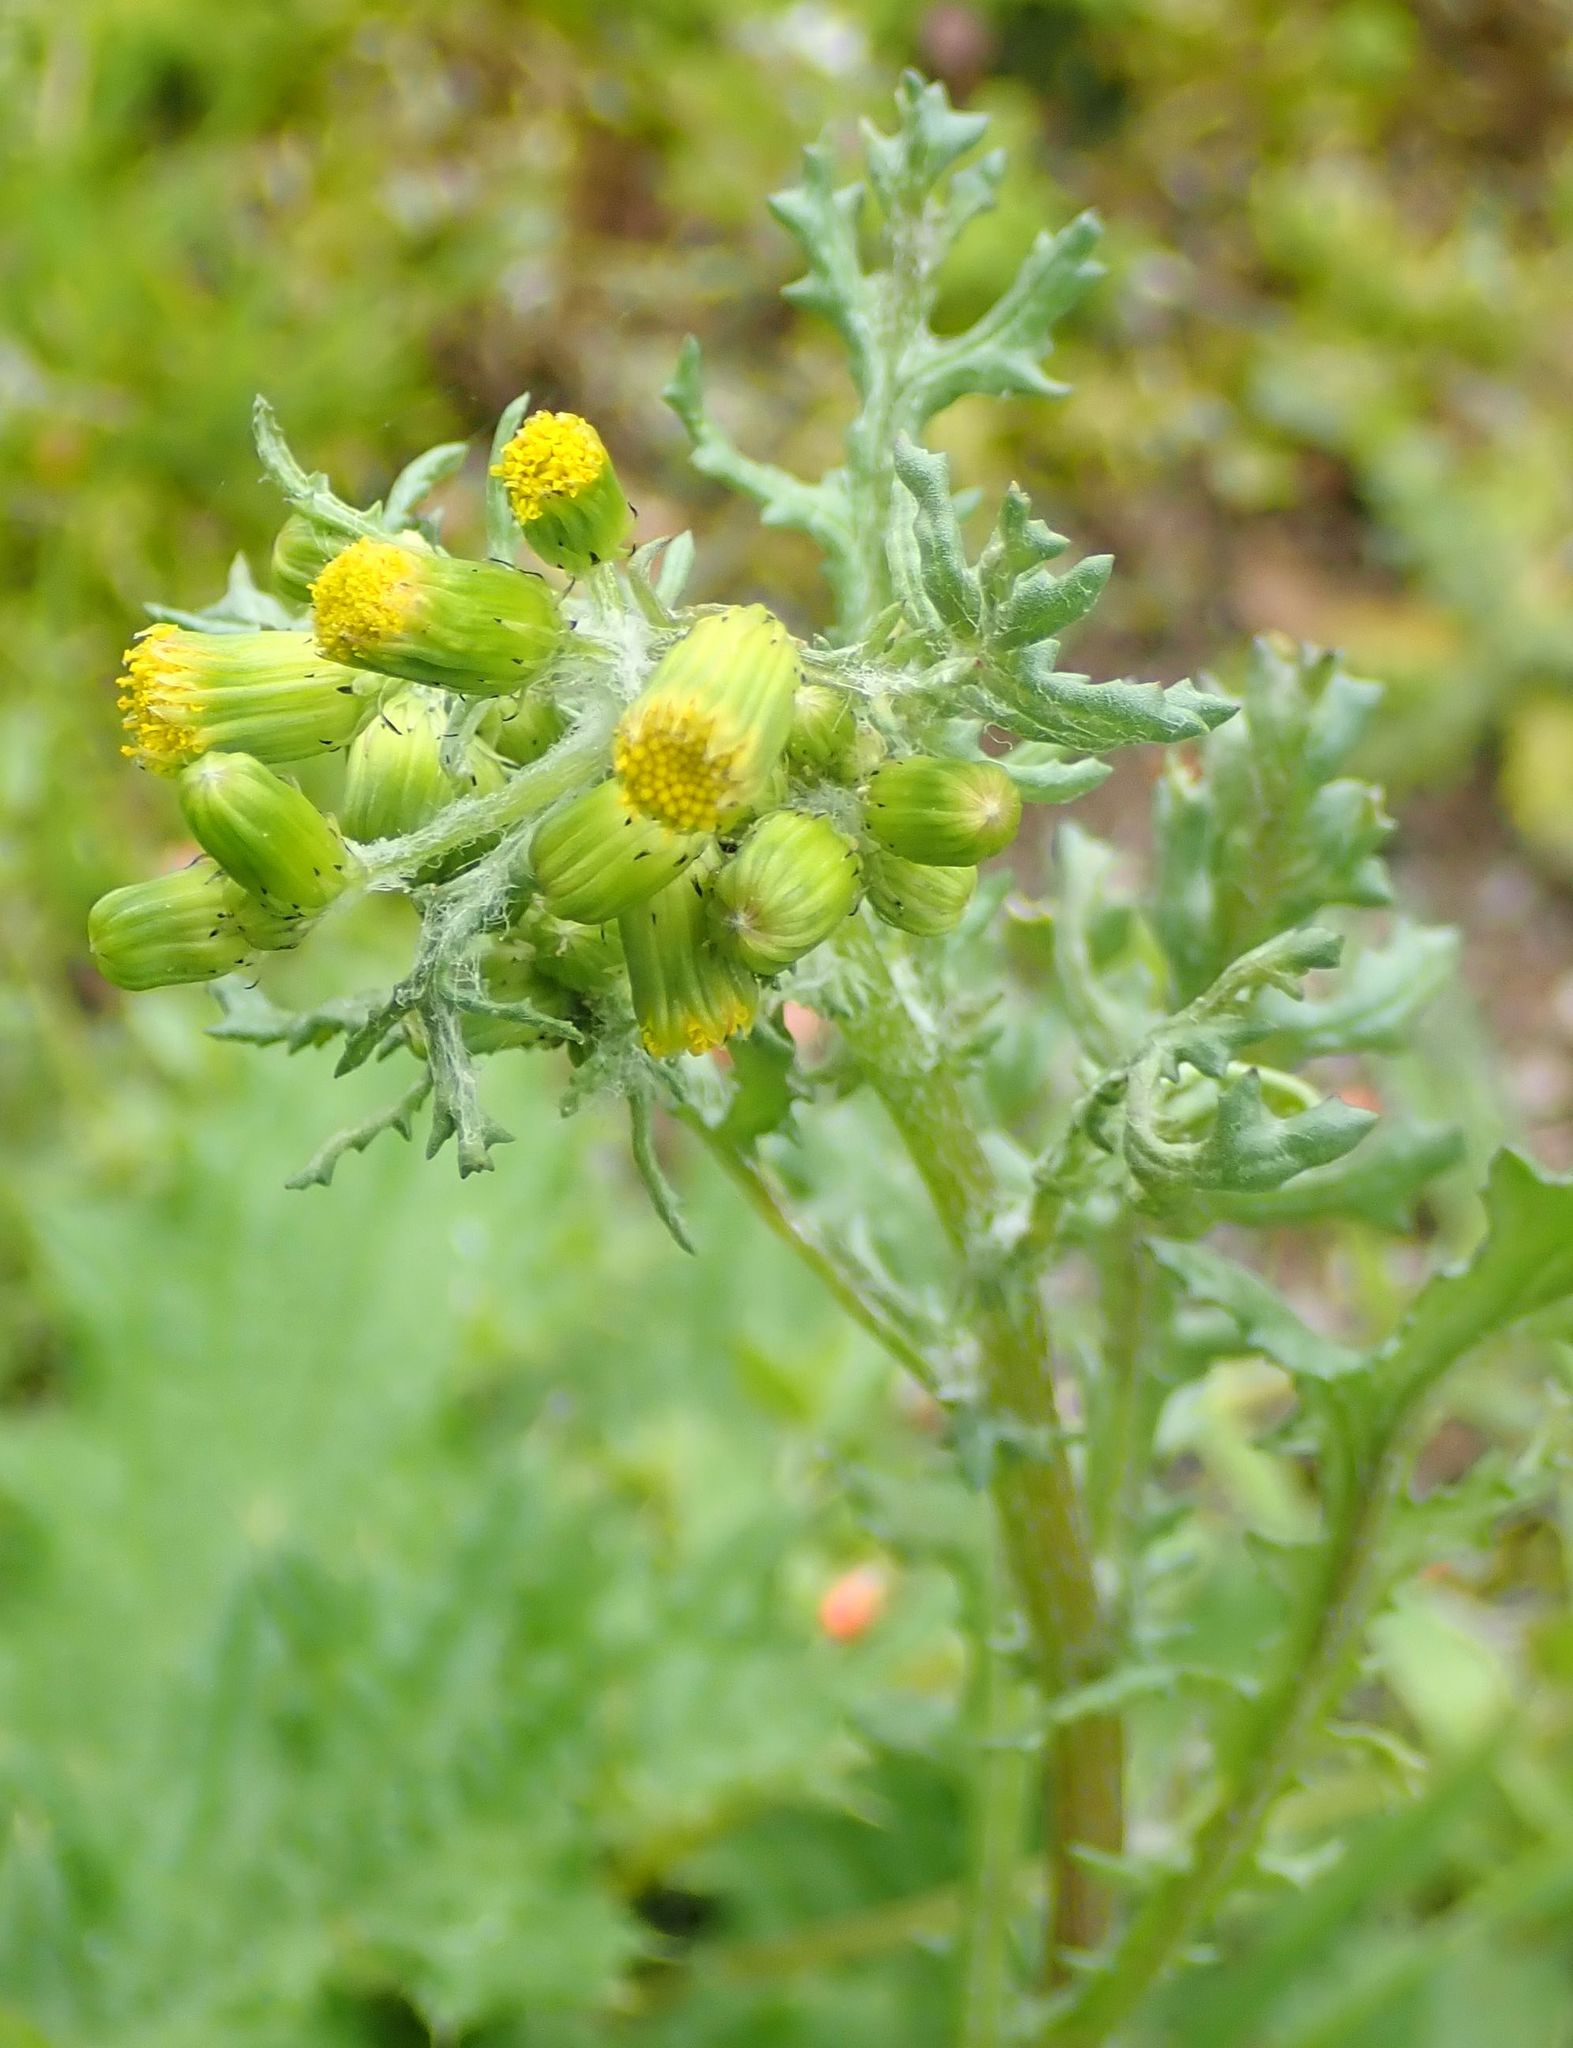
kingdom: Plantae
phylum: Tracheophyta
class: Magnoliopsida
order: Asterales
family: Asteraceae
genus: Senecio
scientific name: Senecio vulgaris
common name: Old-man-in-the-spring
